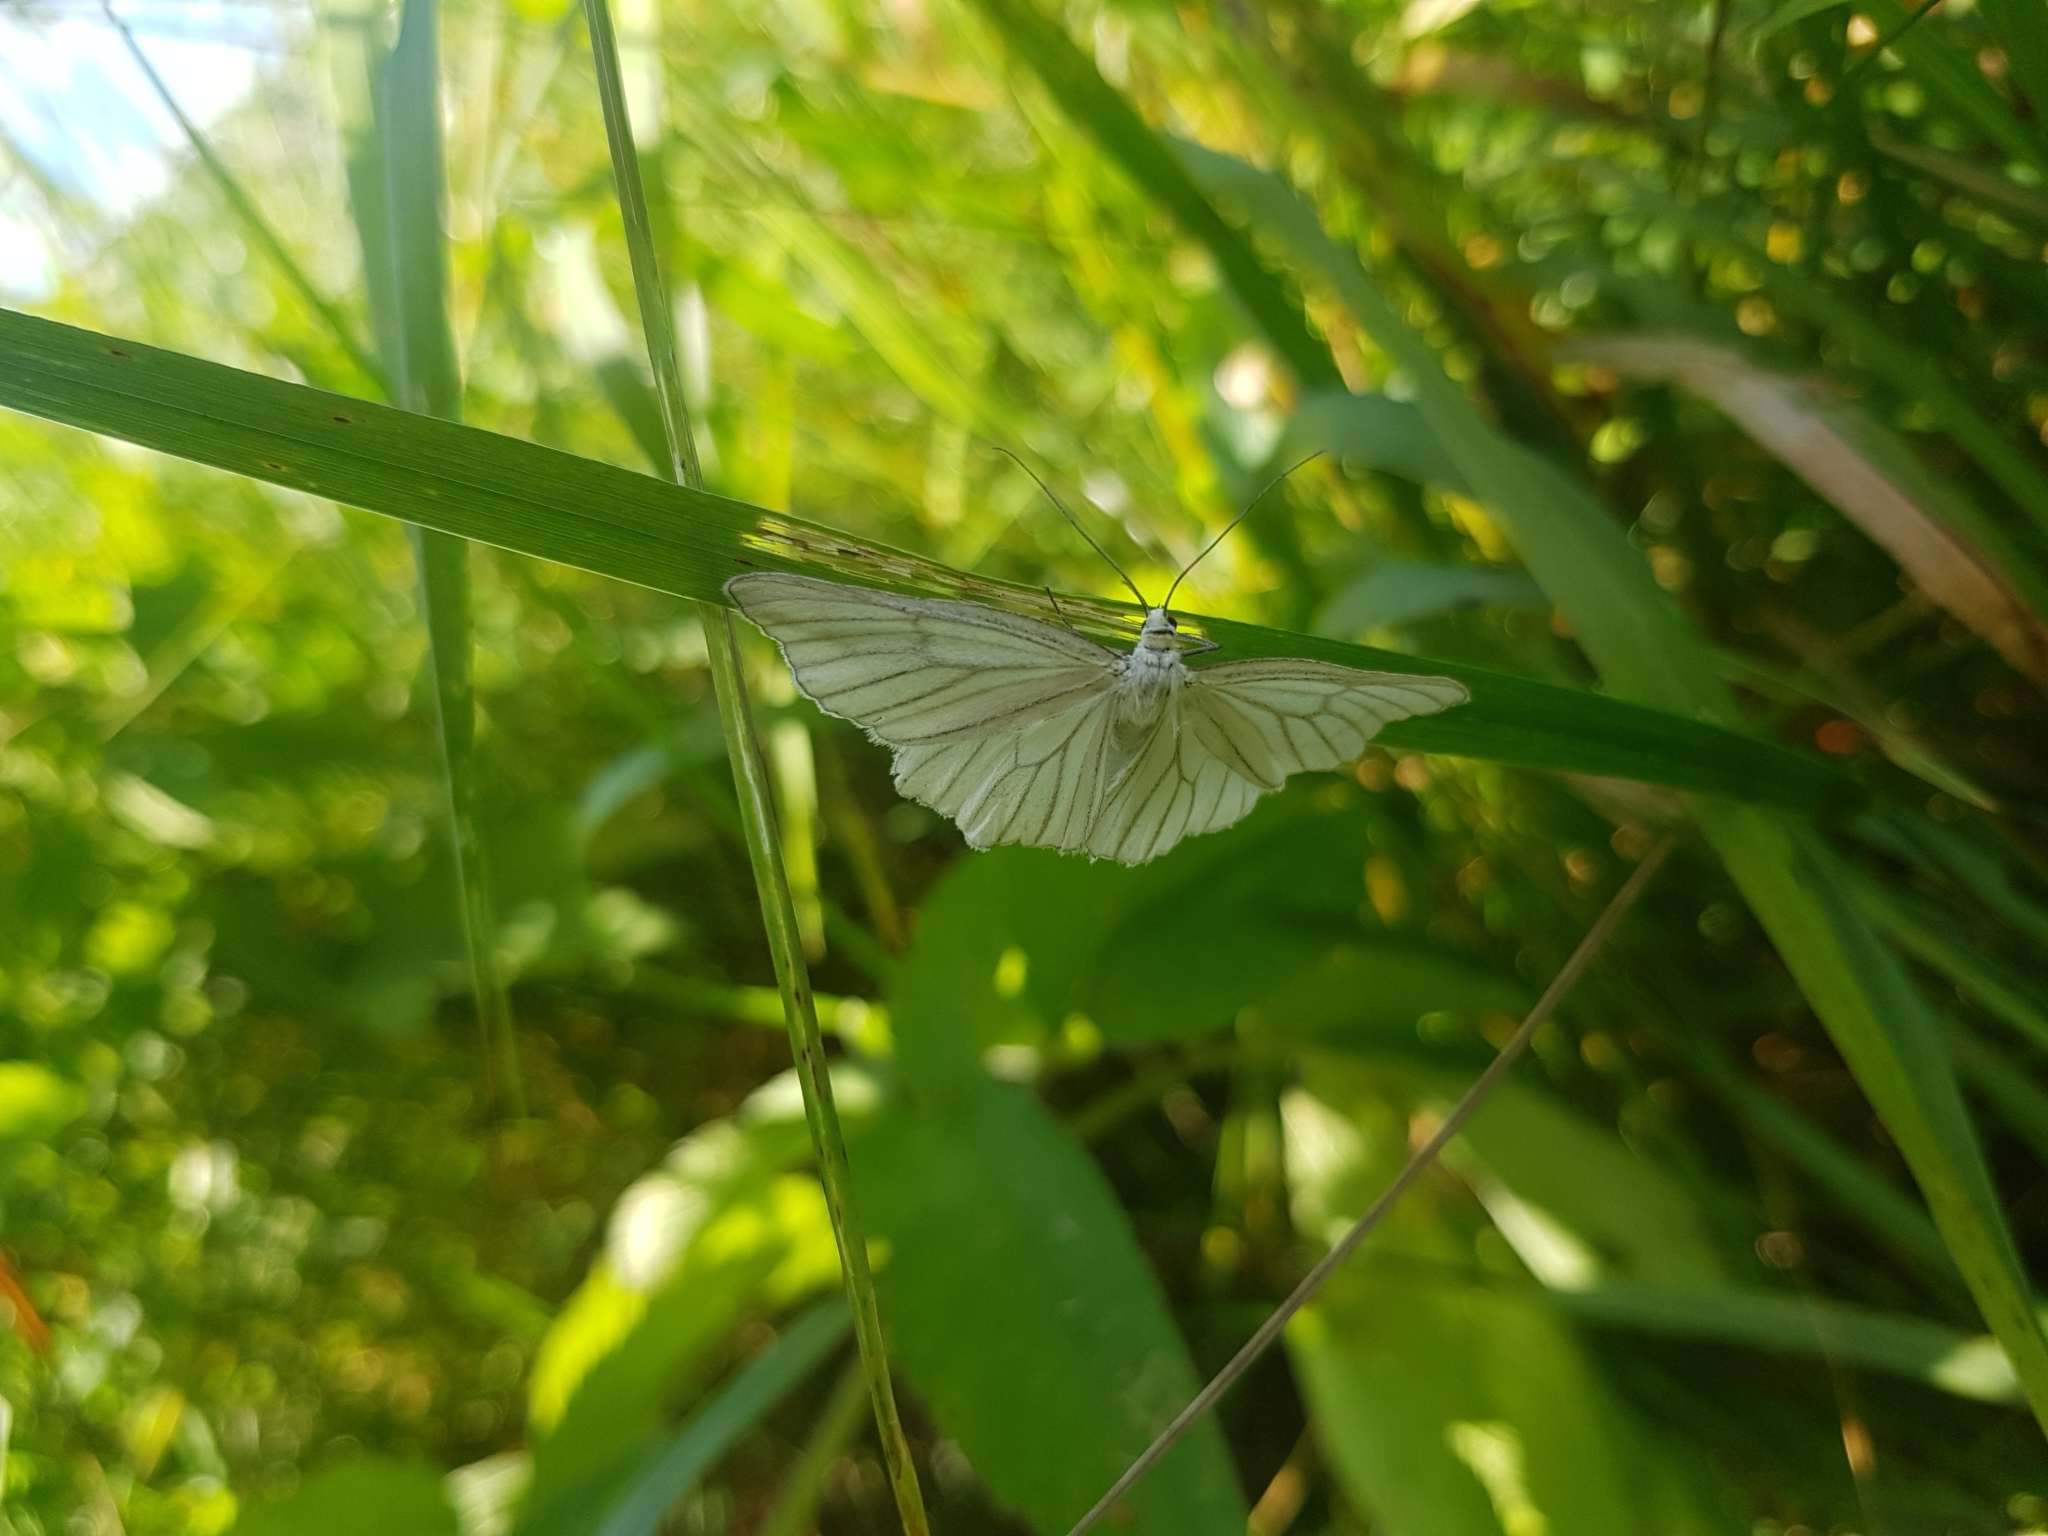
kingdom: Animalia
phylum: Arthropoda
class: Insecta
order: Lepidoptera
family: Geometridae
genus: Siona
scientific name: Siona lineata
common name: Black-veined moth
